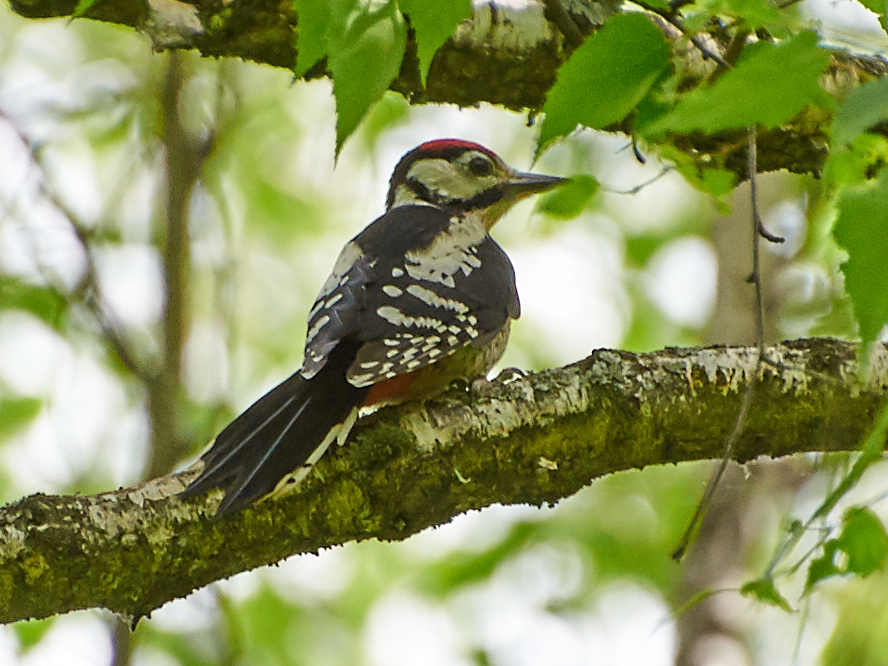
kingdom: Animalia
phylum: Chordata
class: Aves
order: Piciformes
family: Picidae
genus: Dendrocopos
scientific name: Dendrocopos major
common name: Great spotted woodpecker
